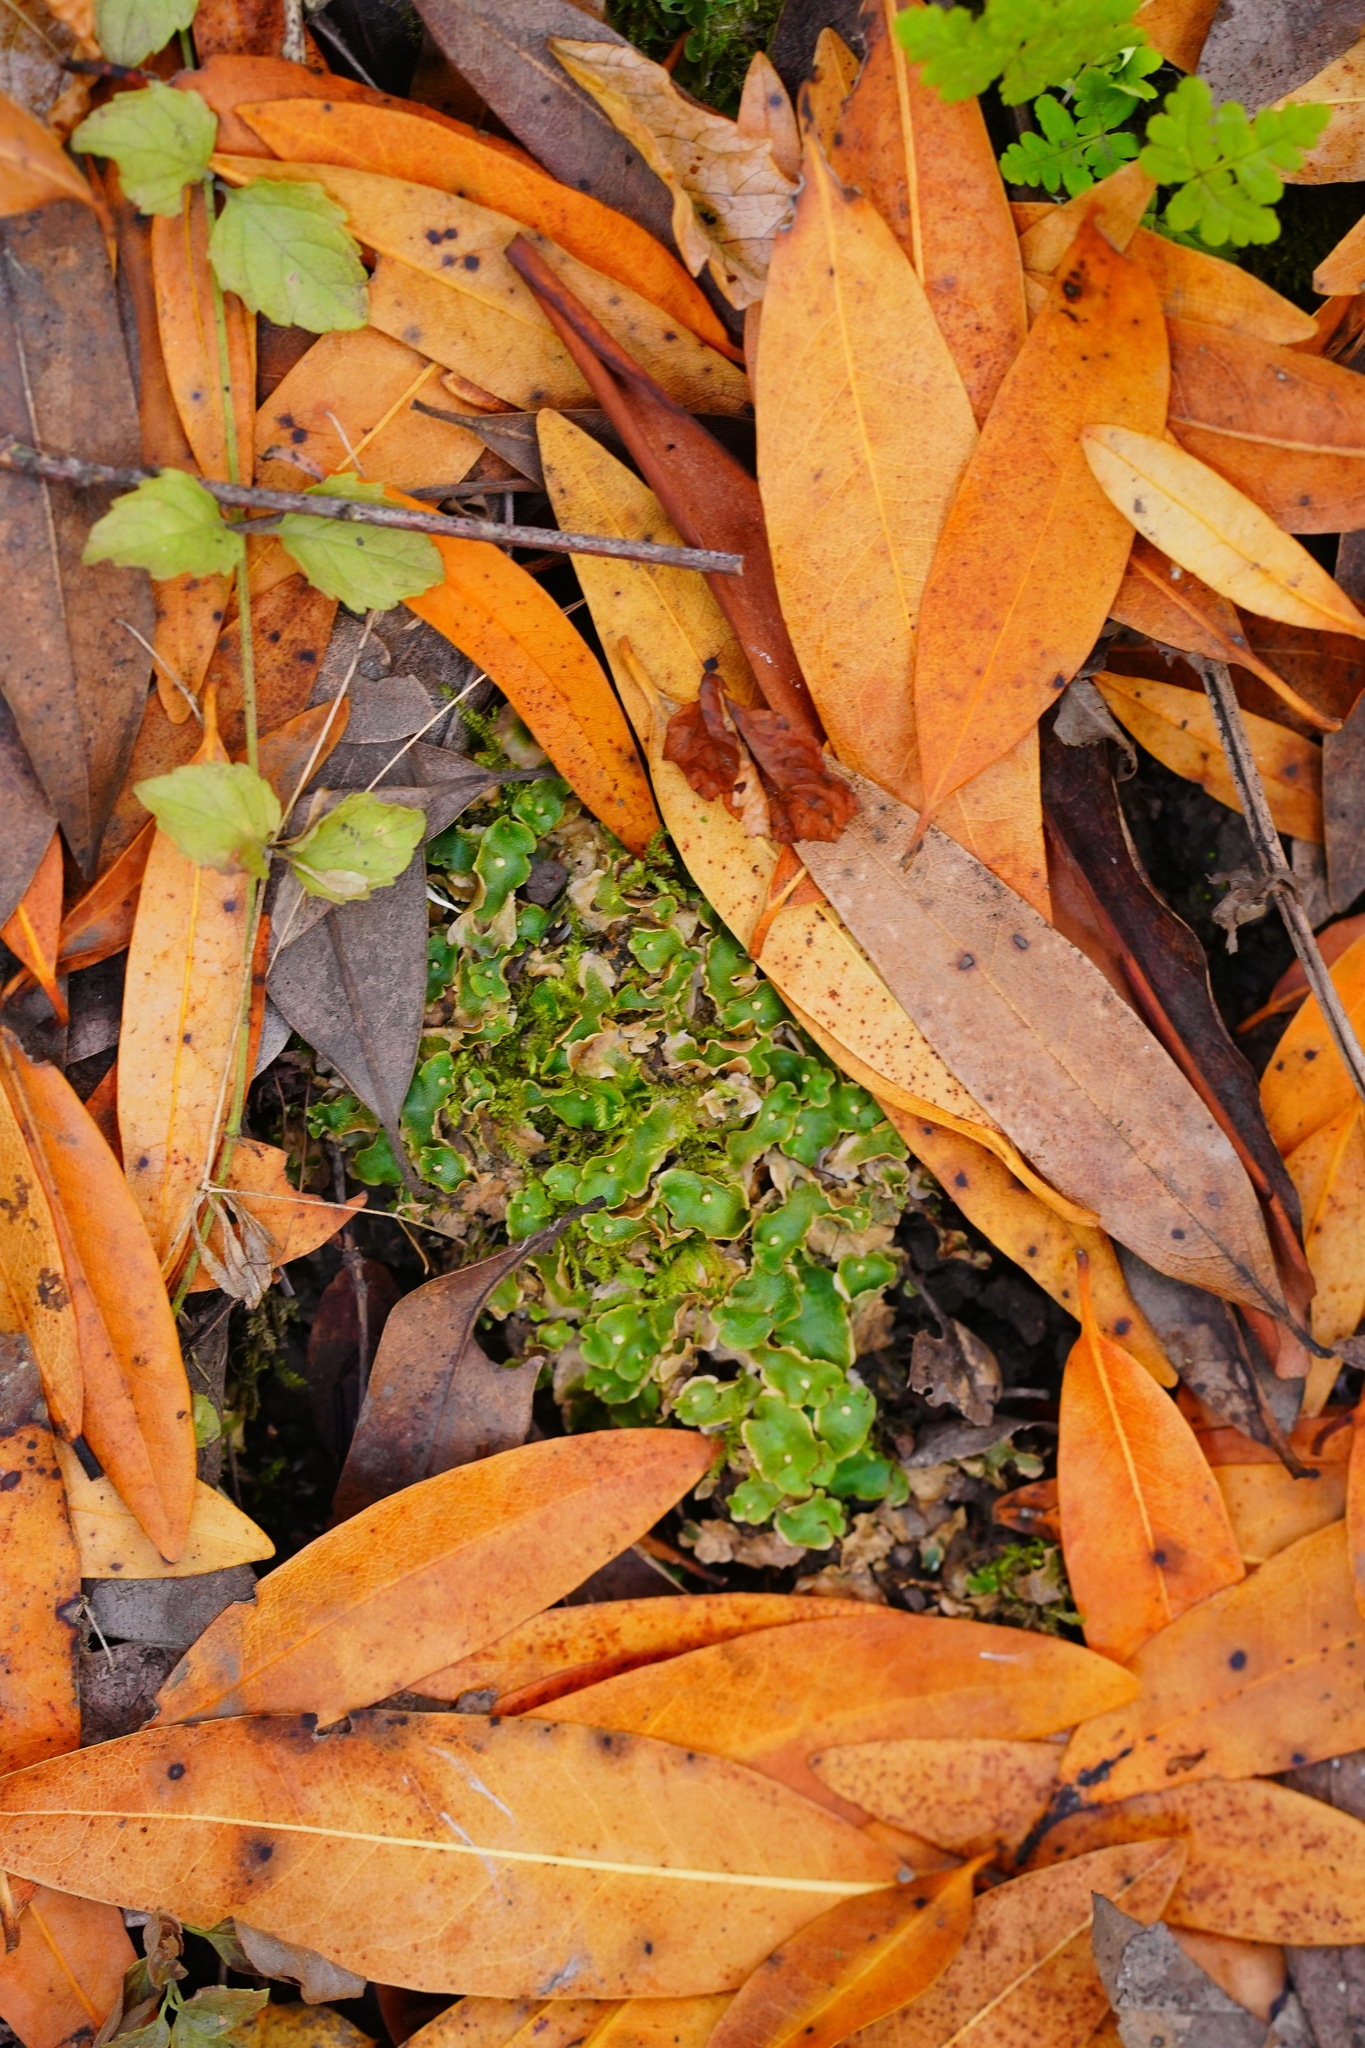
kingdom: Plantae
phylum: Marchantiophyta
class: Marchantiopsida
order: Lunulariales
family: Lunulariaceae
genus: Lunularia
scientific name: Lunularia cruciata
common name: Crescent-cup liverwort
